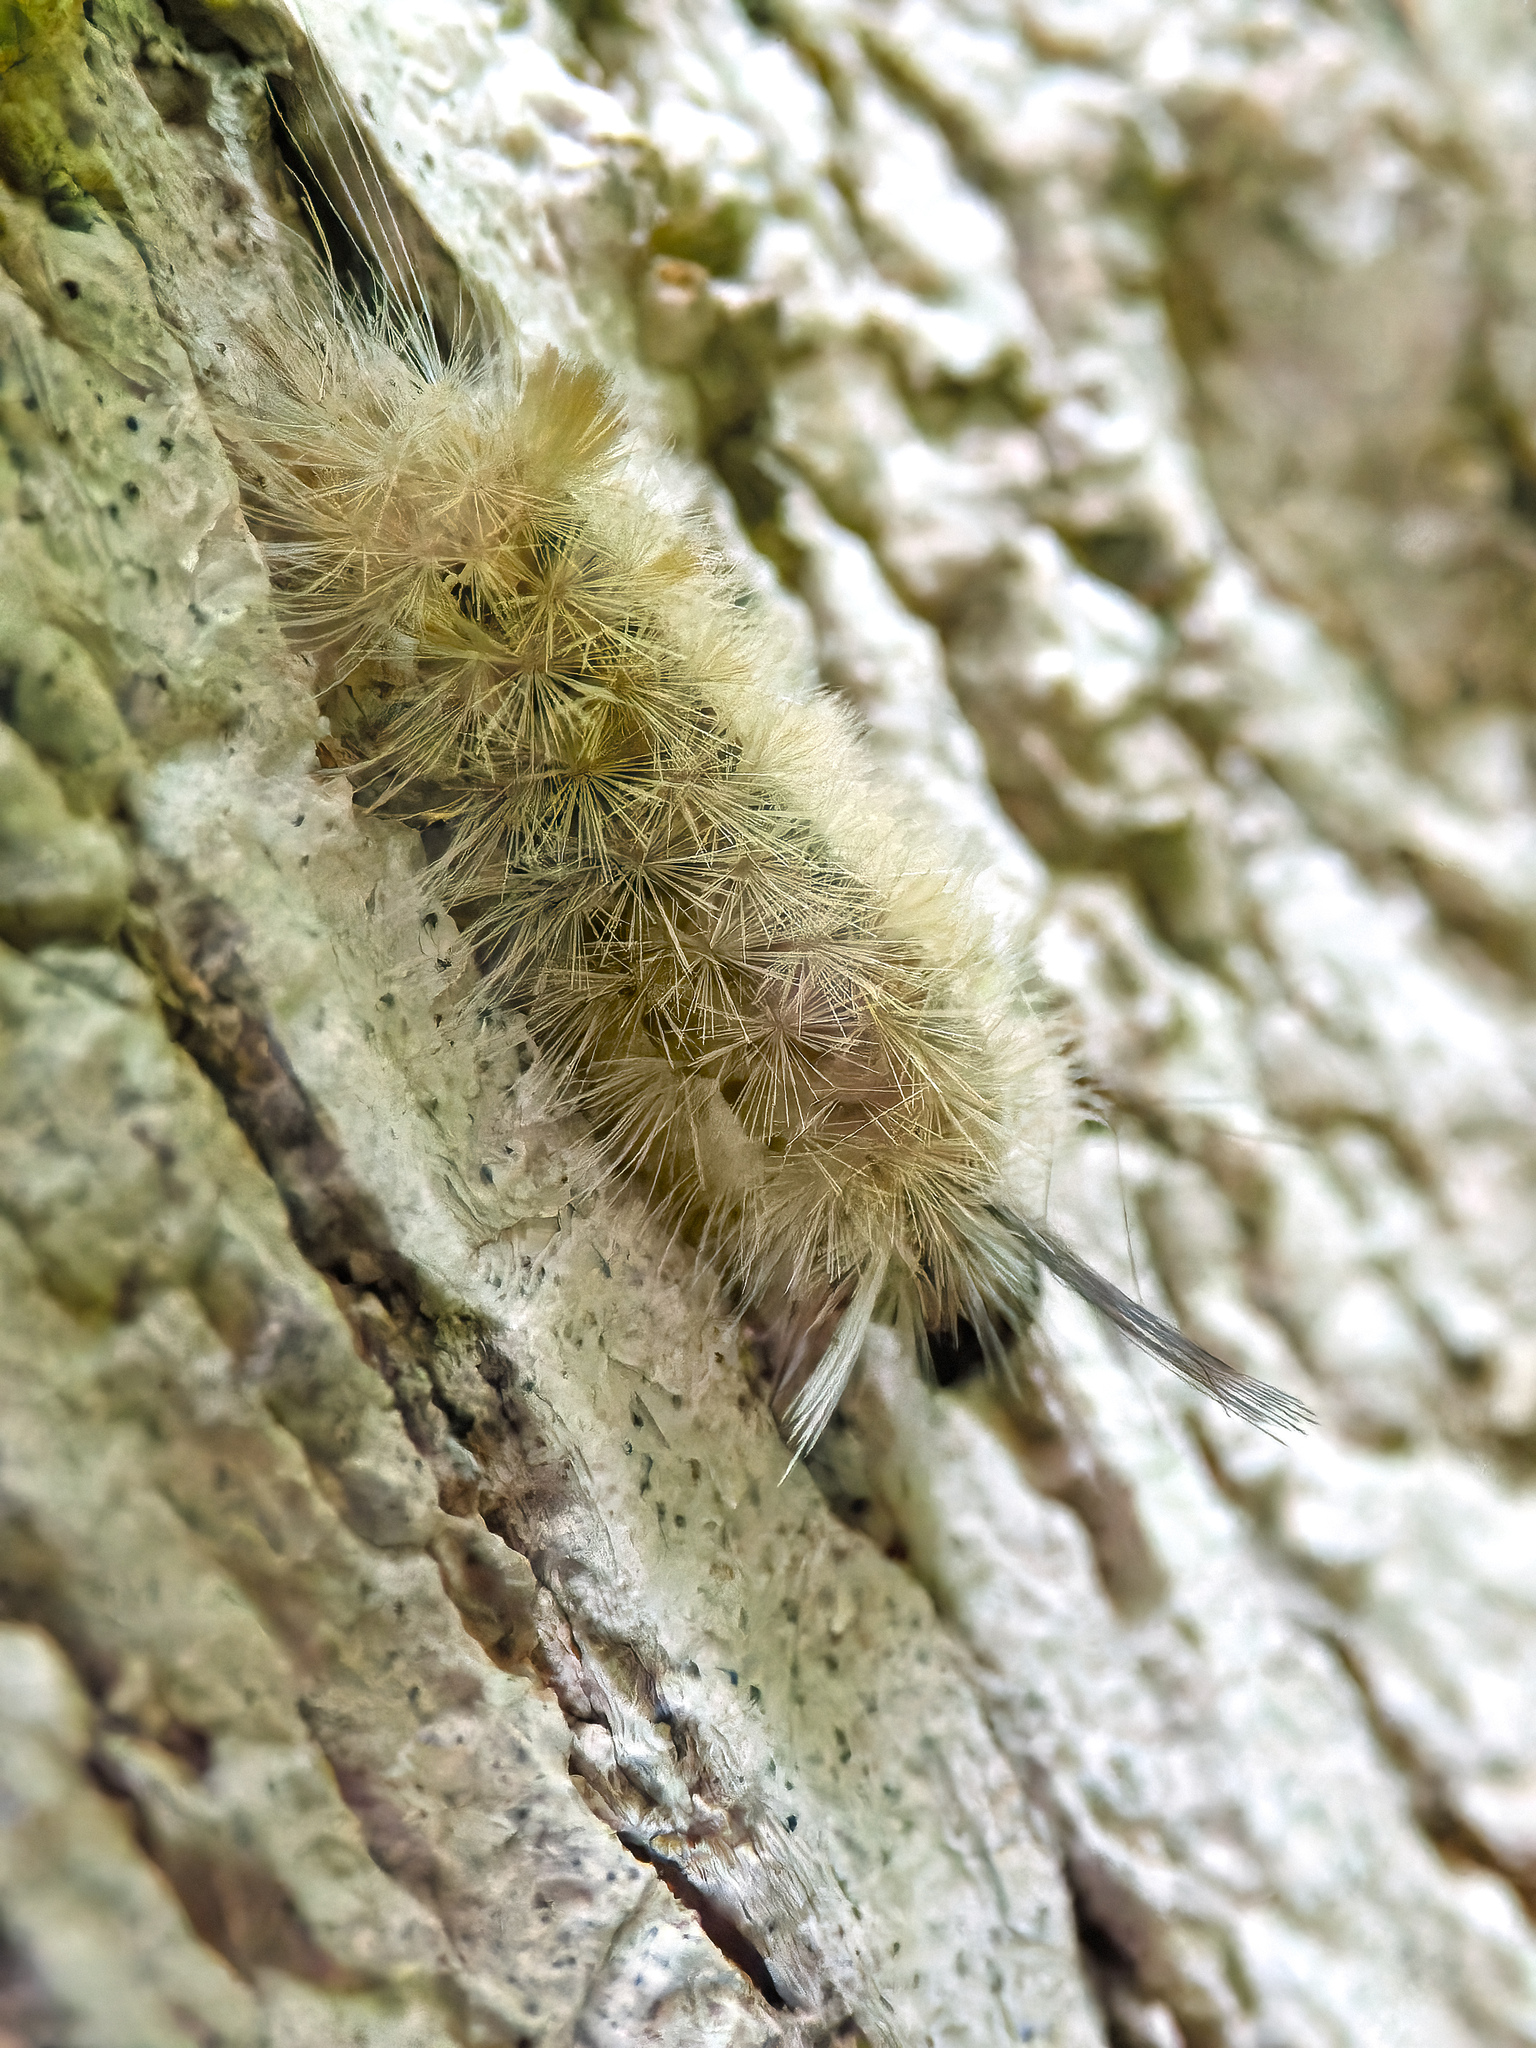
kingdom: Animalia
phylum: Arthropoda
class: Insecta
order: Lepidoptera
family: Erebidae
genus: Halysidota
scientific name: Halysidota tessellaris
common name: Banded tussock moth
